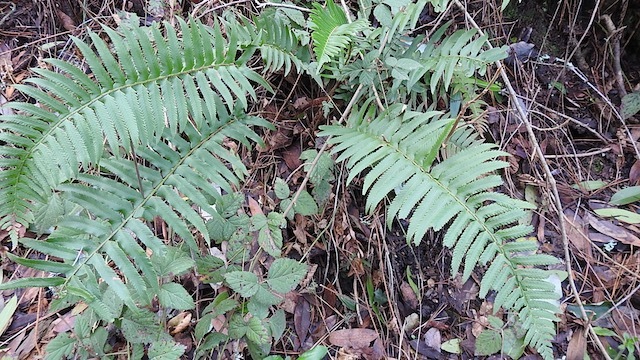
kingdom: Plantae
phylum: Tracheophyta
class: Polypodiopsida
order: Polypodiales
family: Dryopteridaceae
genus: Polystichum
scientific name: Polystichum munitum
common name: Western sword-fern
